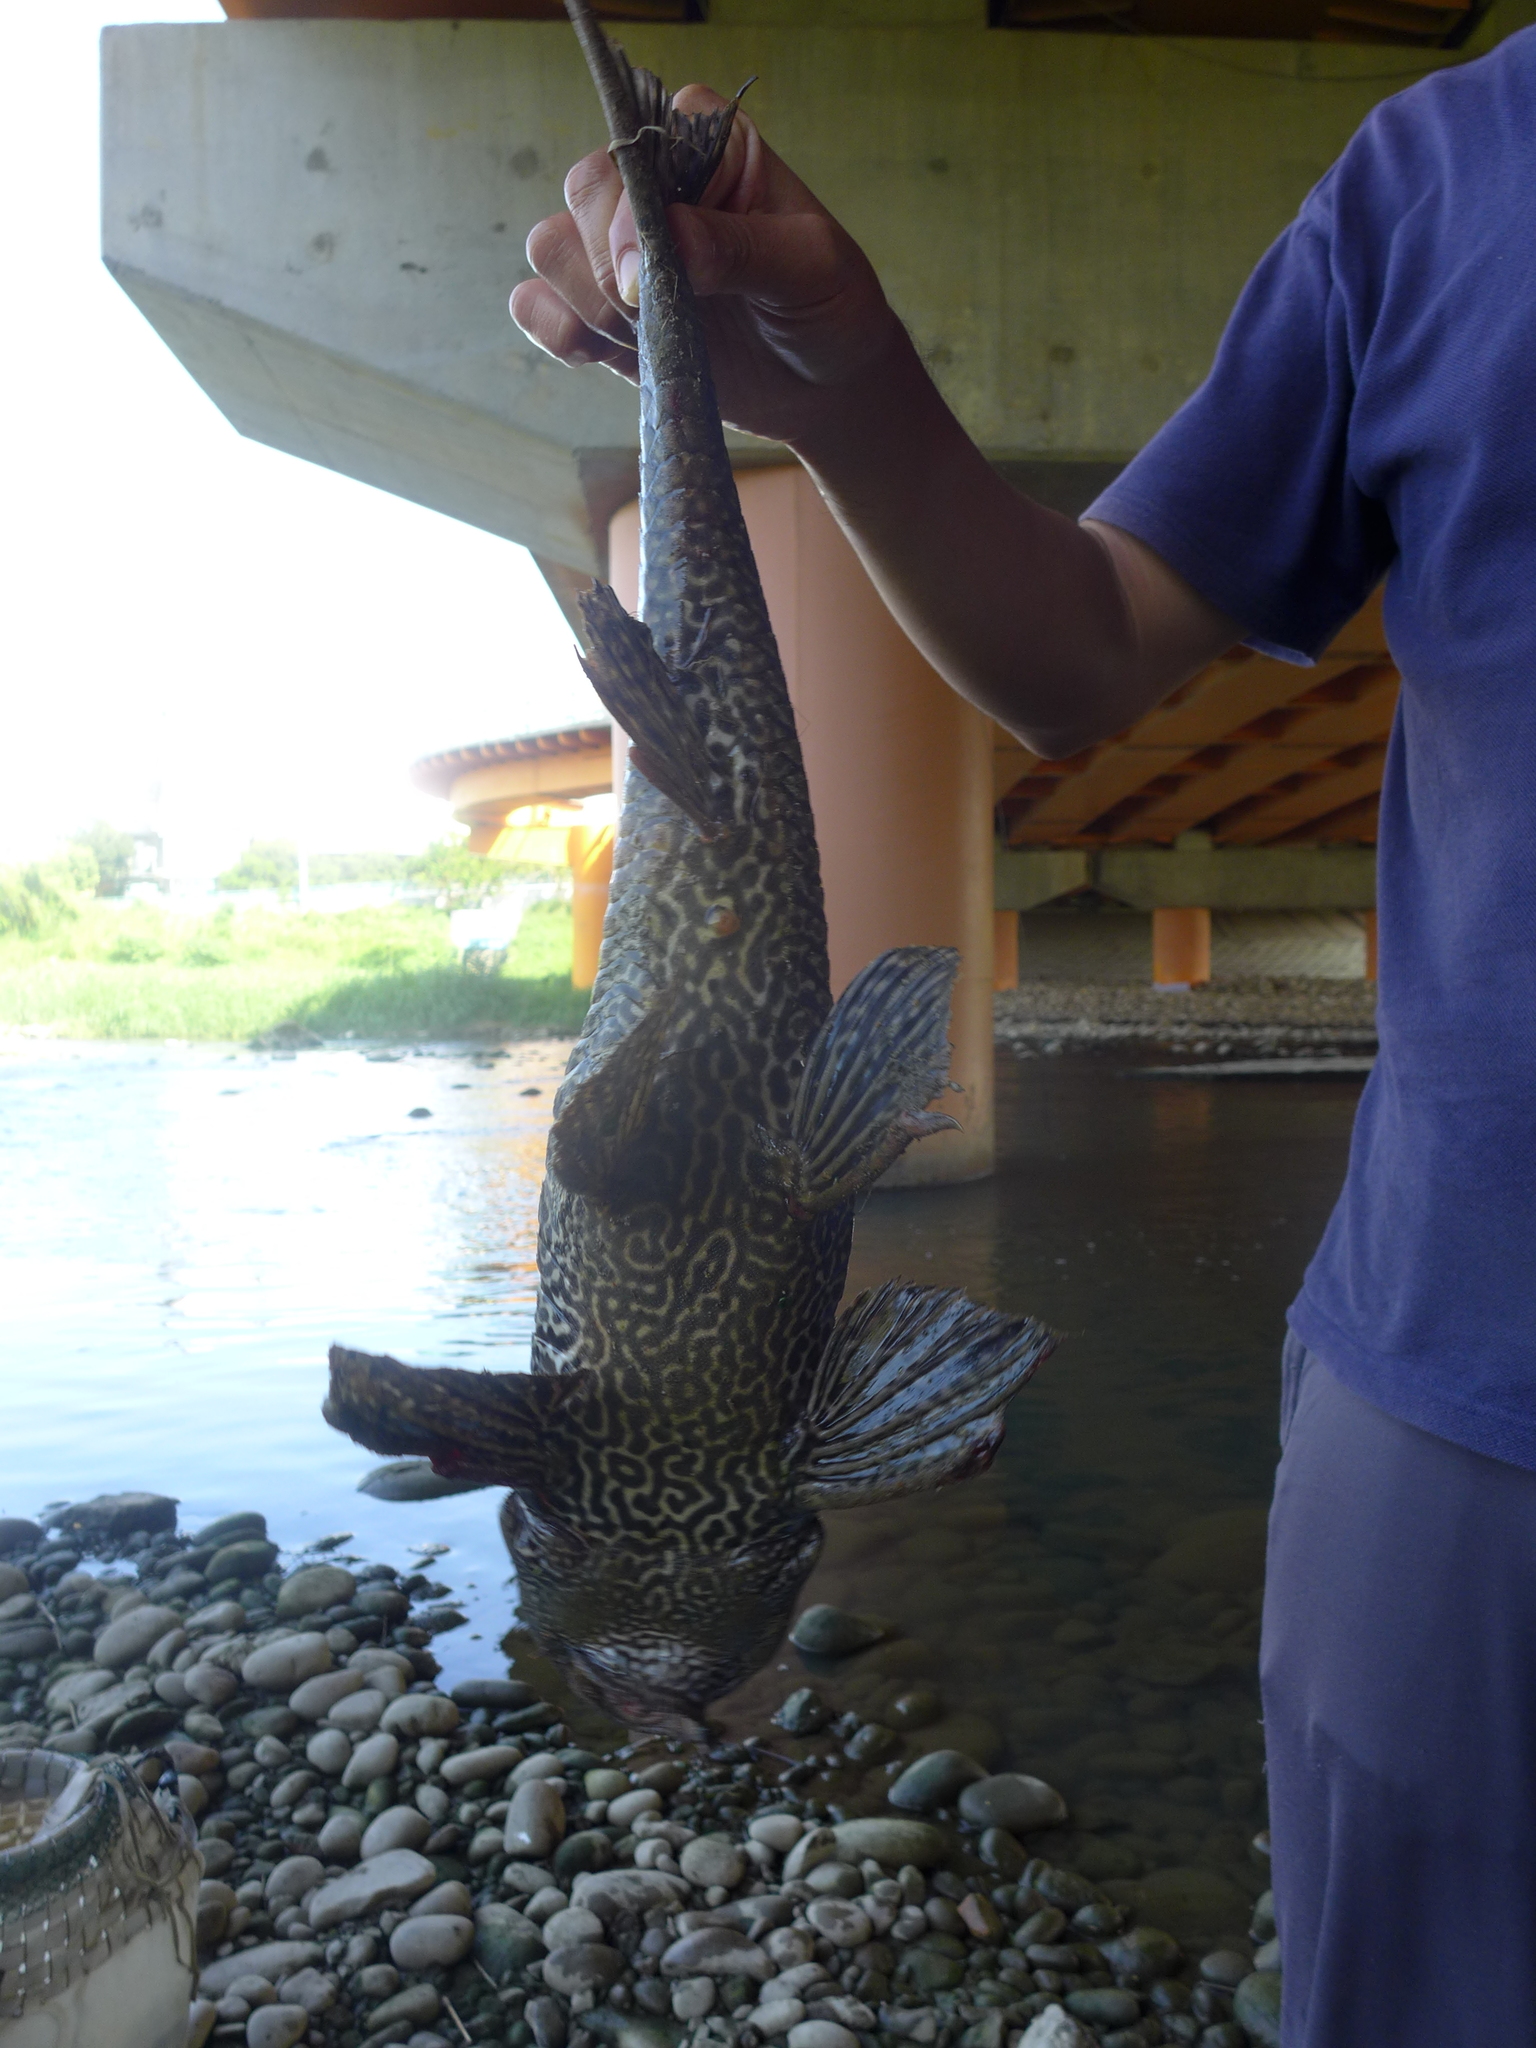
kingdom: Animalia
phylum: Chordata
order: Siluriformes
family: Loricariidae
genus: Pterygoplichthys
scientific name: Pterygoplichthys
